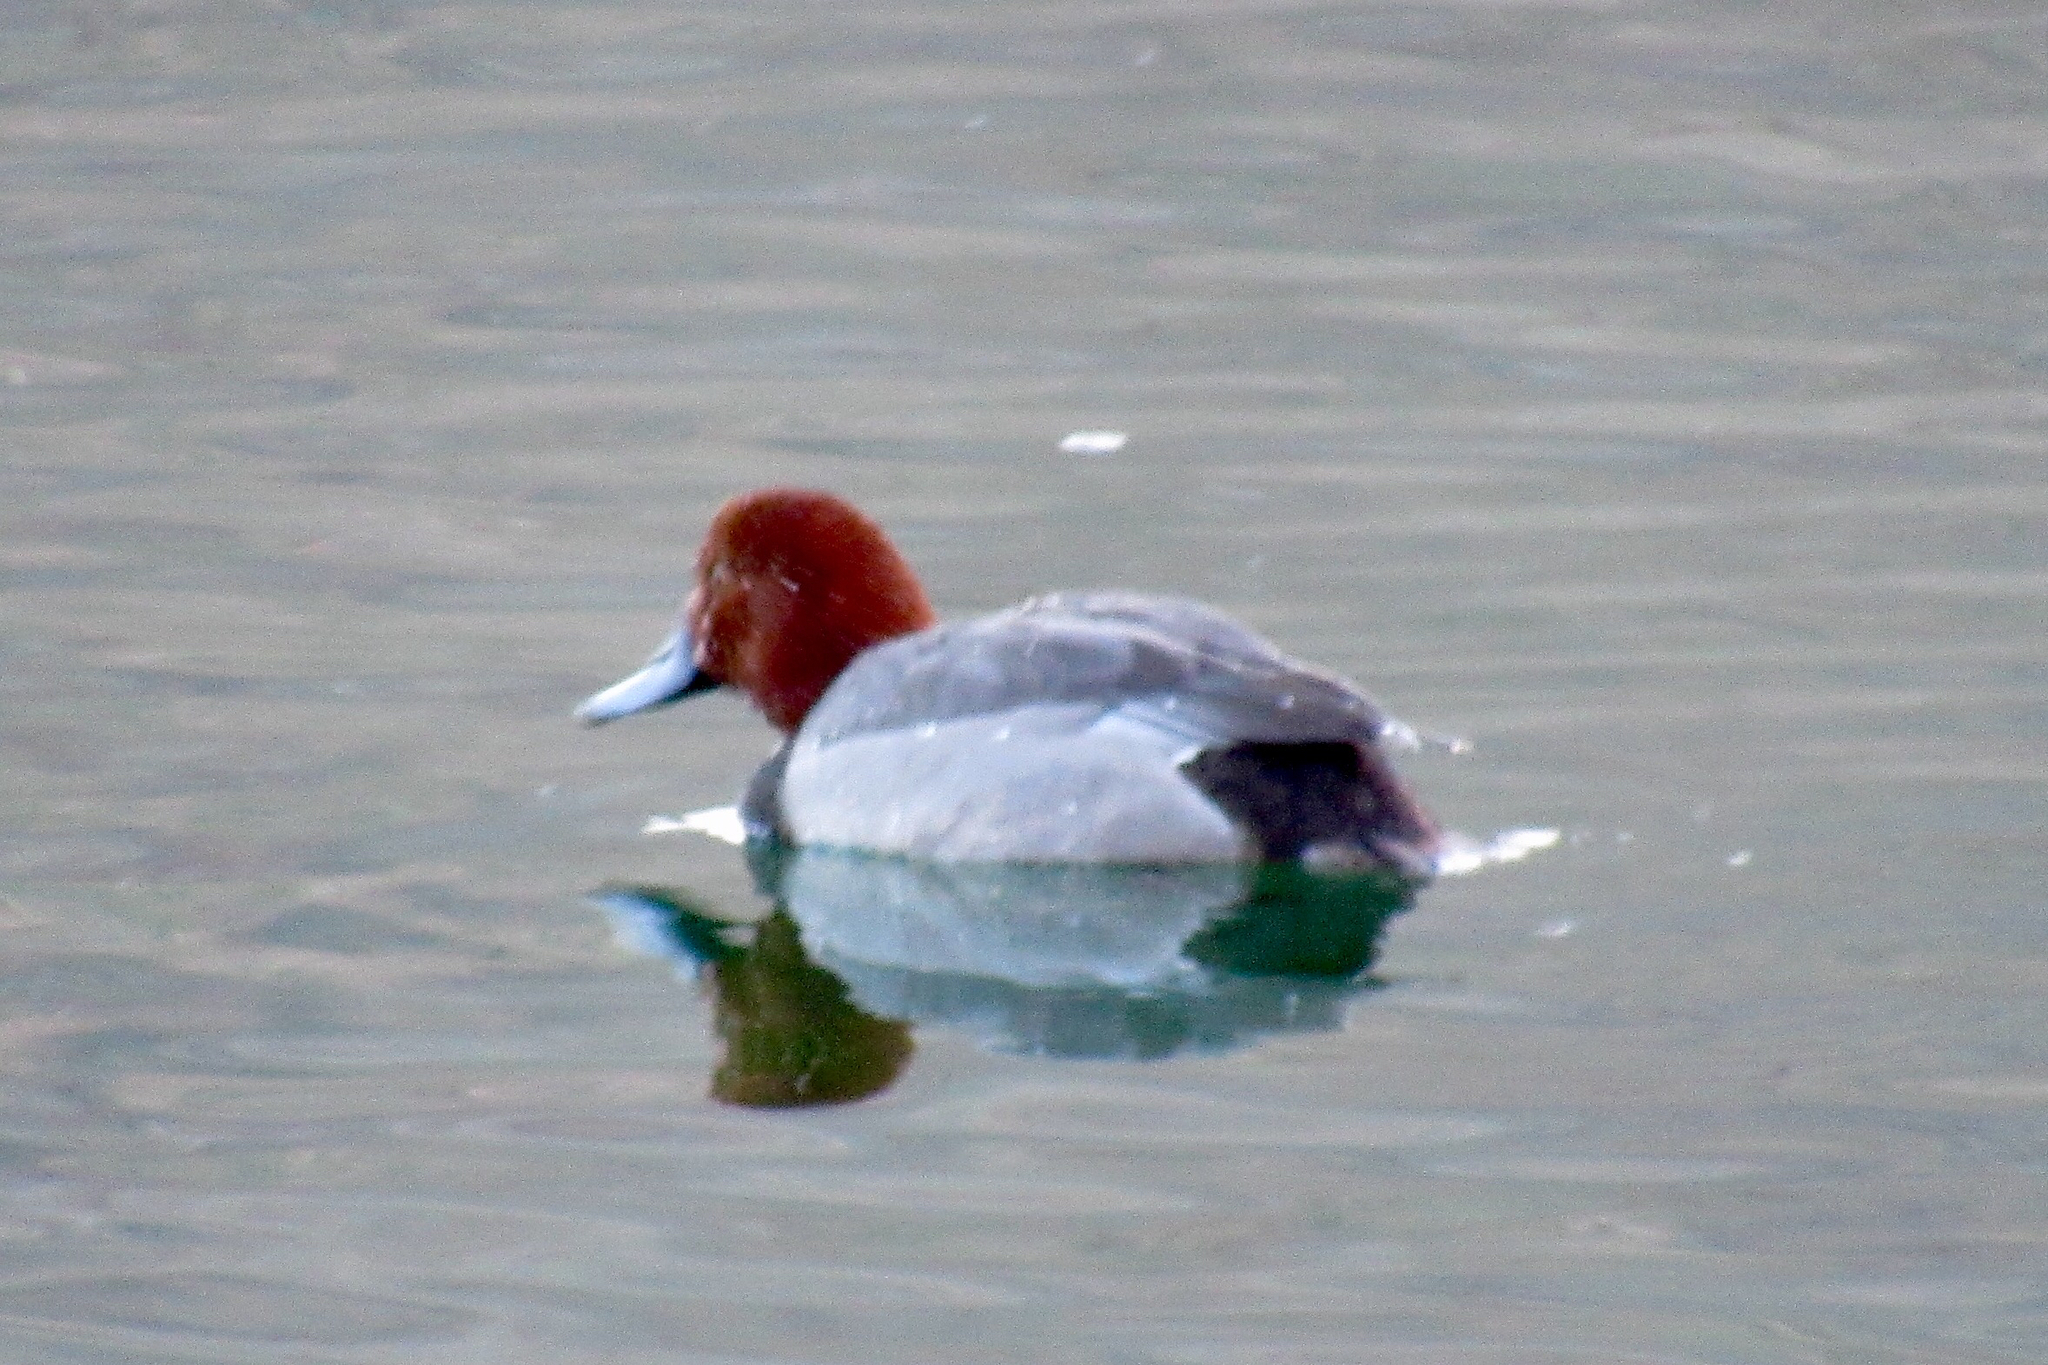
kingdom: Animalia
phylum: Chordata
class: Aves
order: Anseriformes
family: Anatidae
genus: Aythya
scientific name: Aythya americana
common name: Redhead
